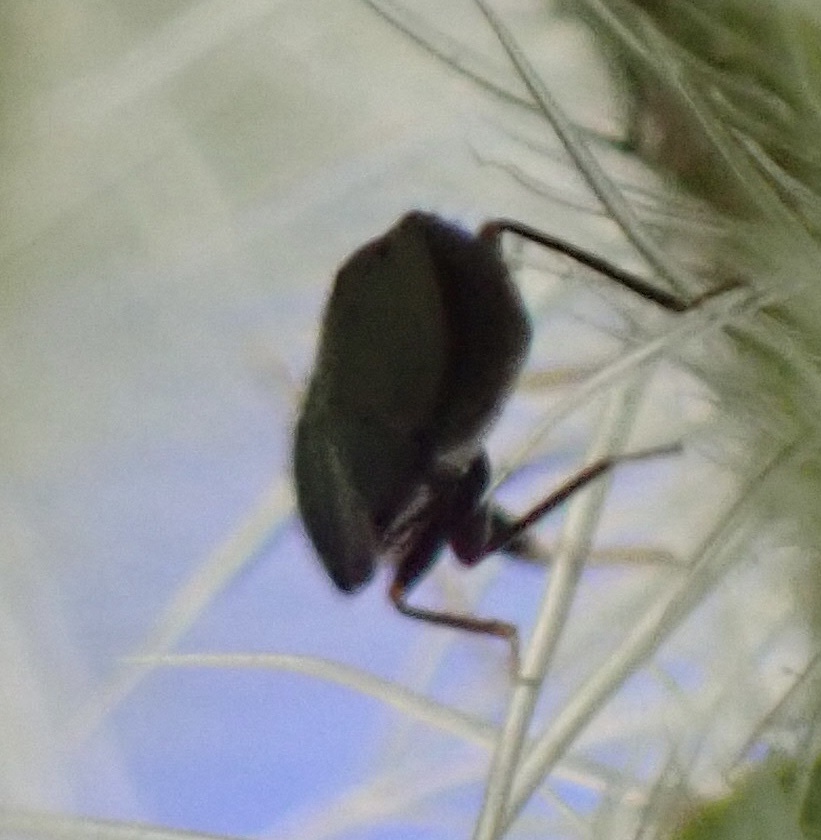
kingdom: Animalia
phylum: Arthropoda
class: Insecta
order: Hemiptera
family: Anthocoridae
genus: Orius
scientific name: Orius niger
